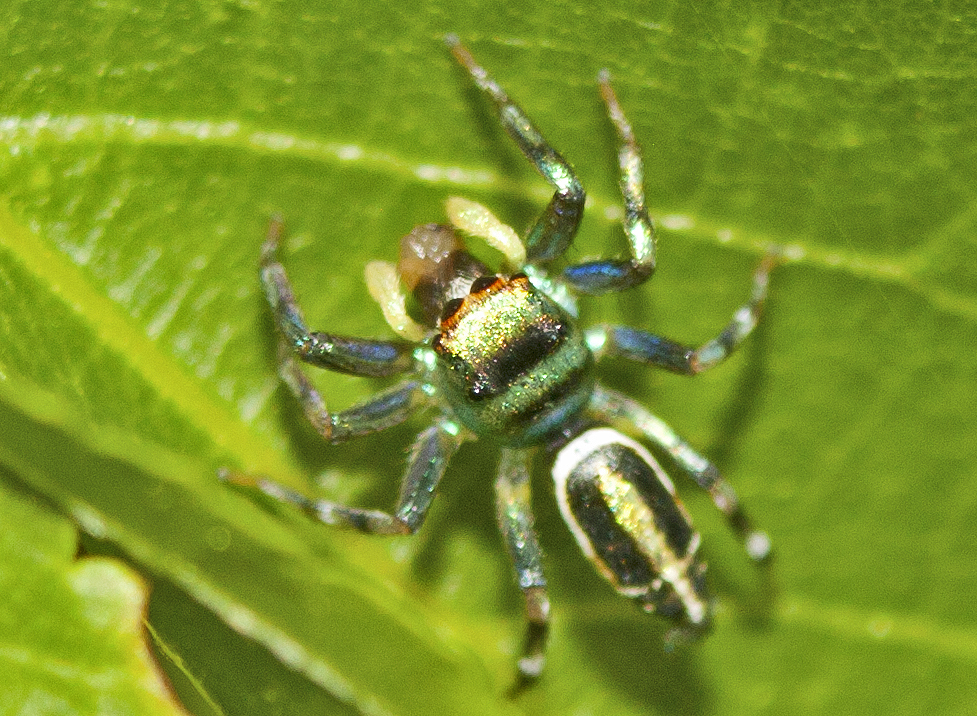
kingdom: Animalia
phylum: Arthropoda
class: Arachnida
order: Araneae
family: Salticidae
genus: Cosmophasis
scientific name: Cosmophasis thalassina
